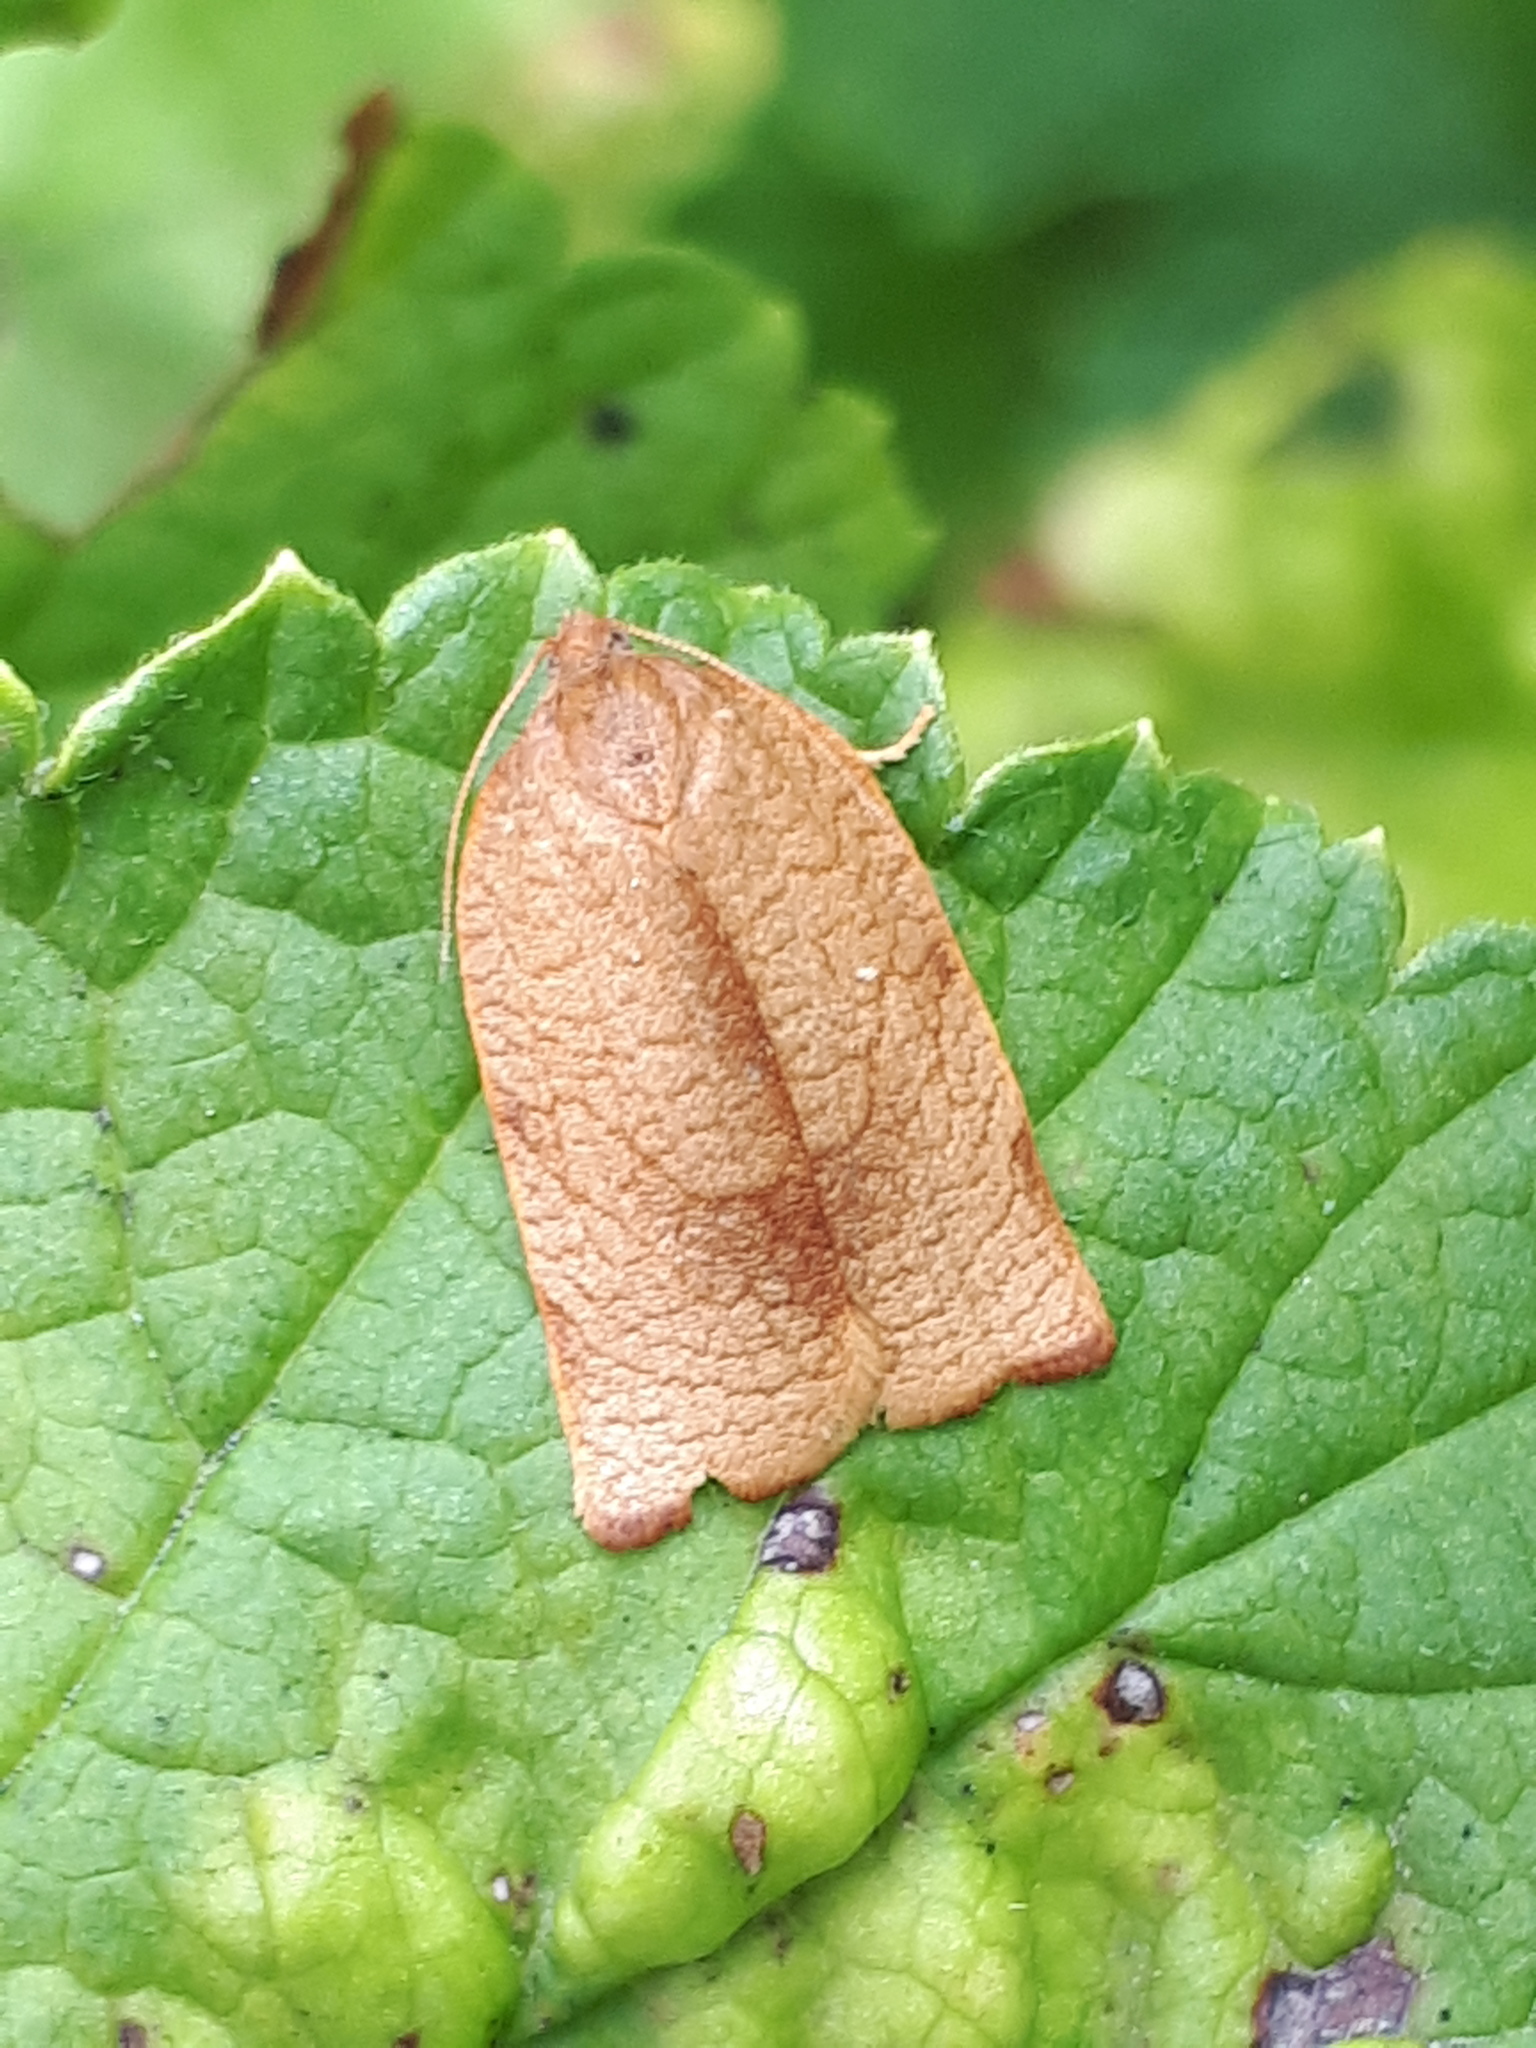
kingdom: Animalia
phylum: Arthropoda
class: Insecta
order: Lepidoptera
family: Tortricidae
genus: Cacoecimorpha
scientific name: Cacoecimorpha pronubana
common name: Carnation tortrix
